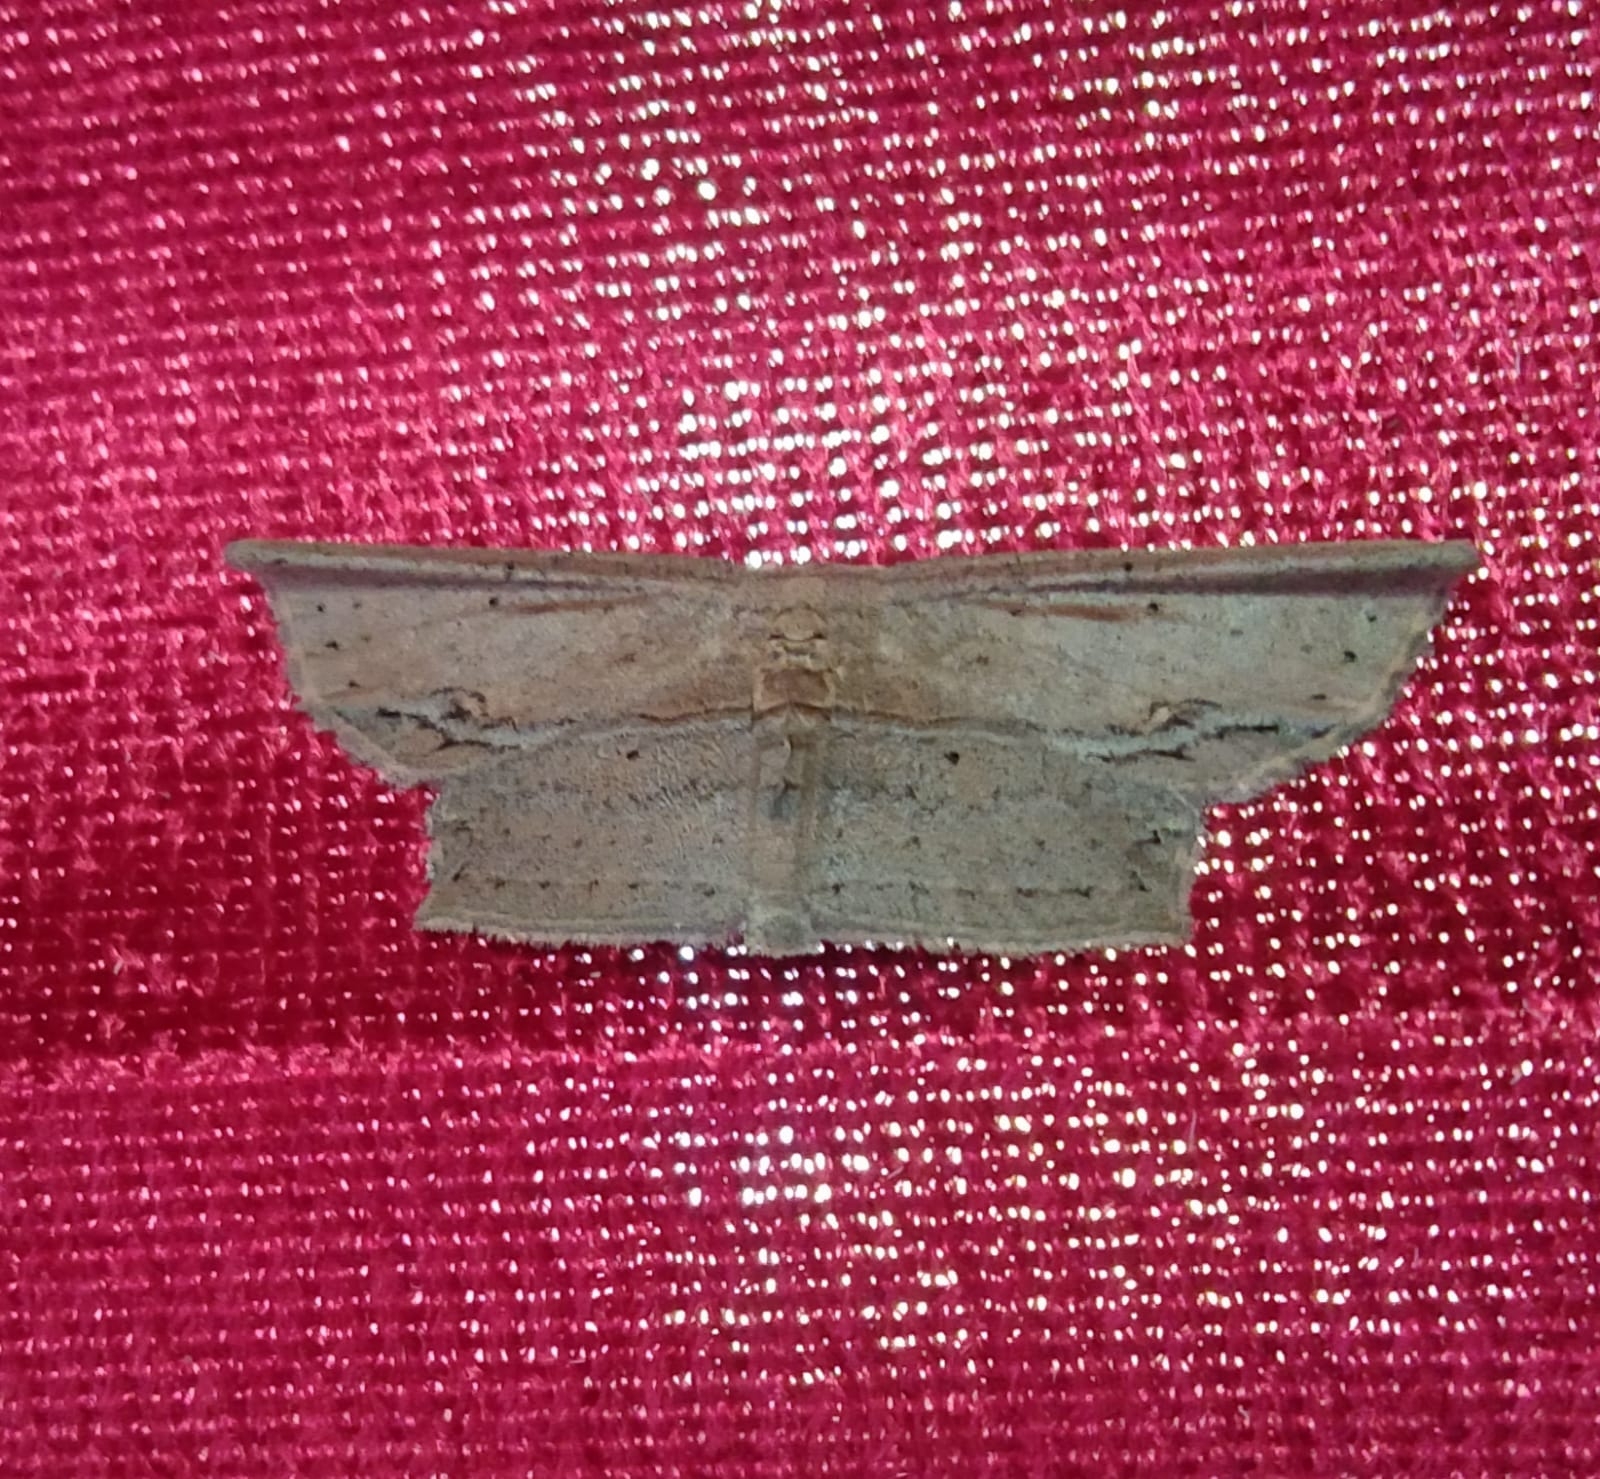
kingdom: Animalia
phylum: Arthropoda
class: Insecta
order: Lepidoptera
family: Drepanidae
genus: Phalacra
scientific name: Phalacra vidhisara
